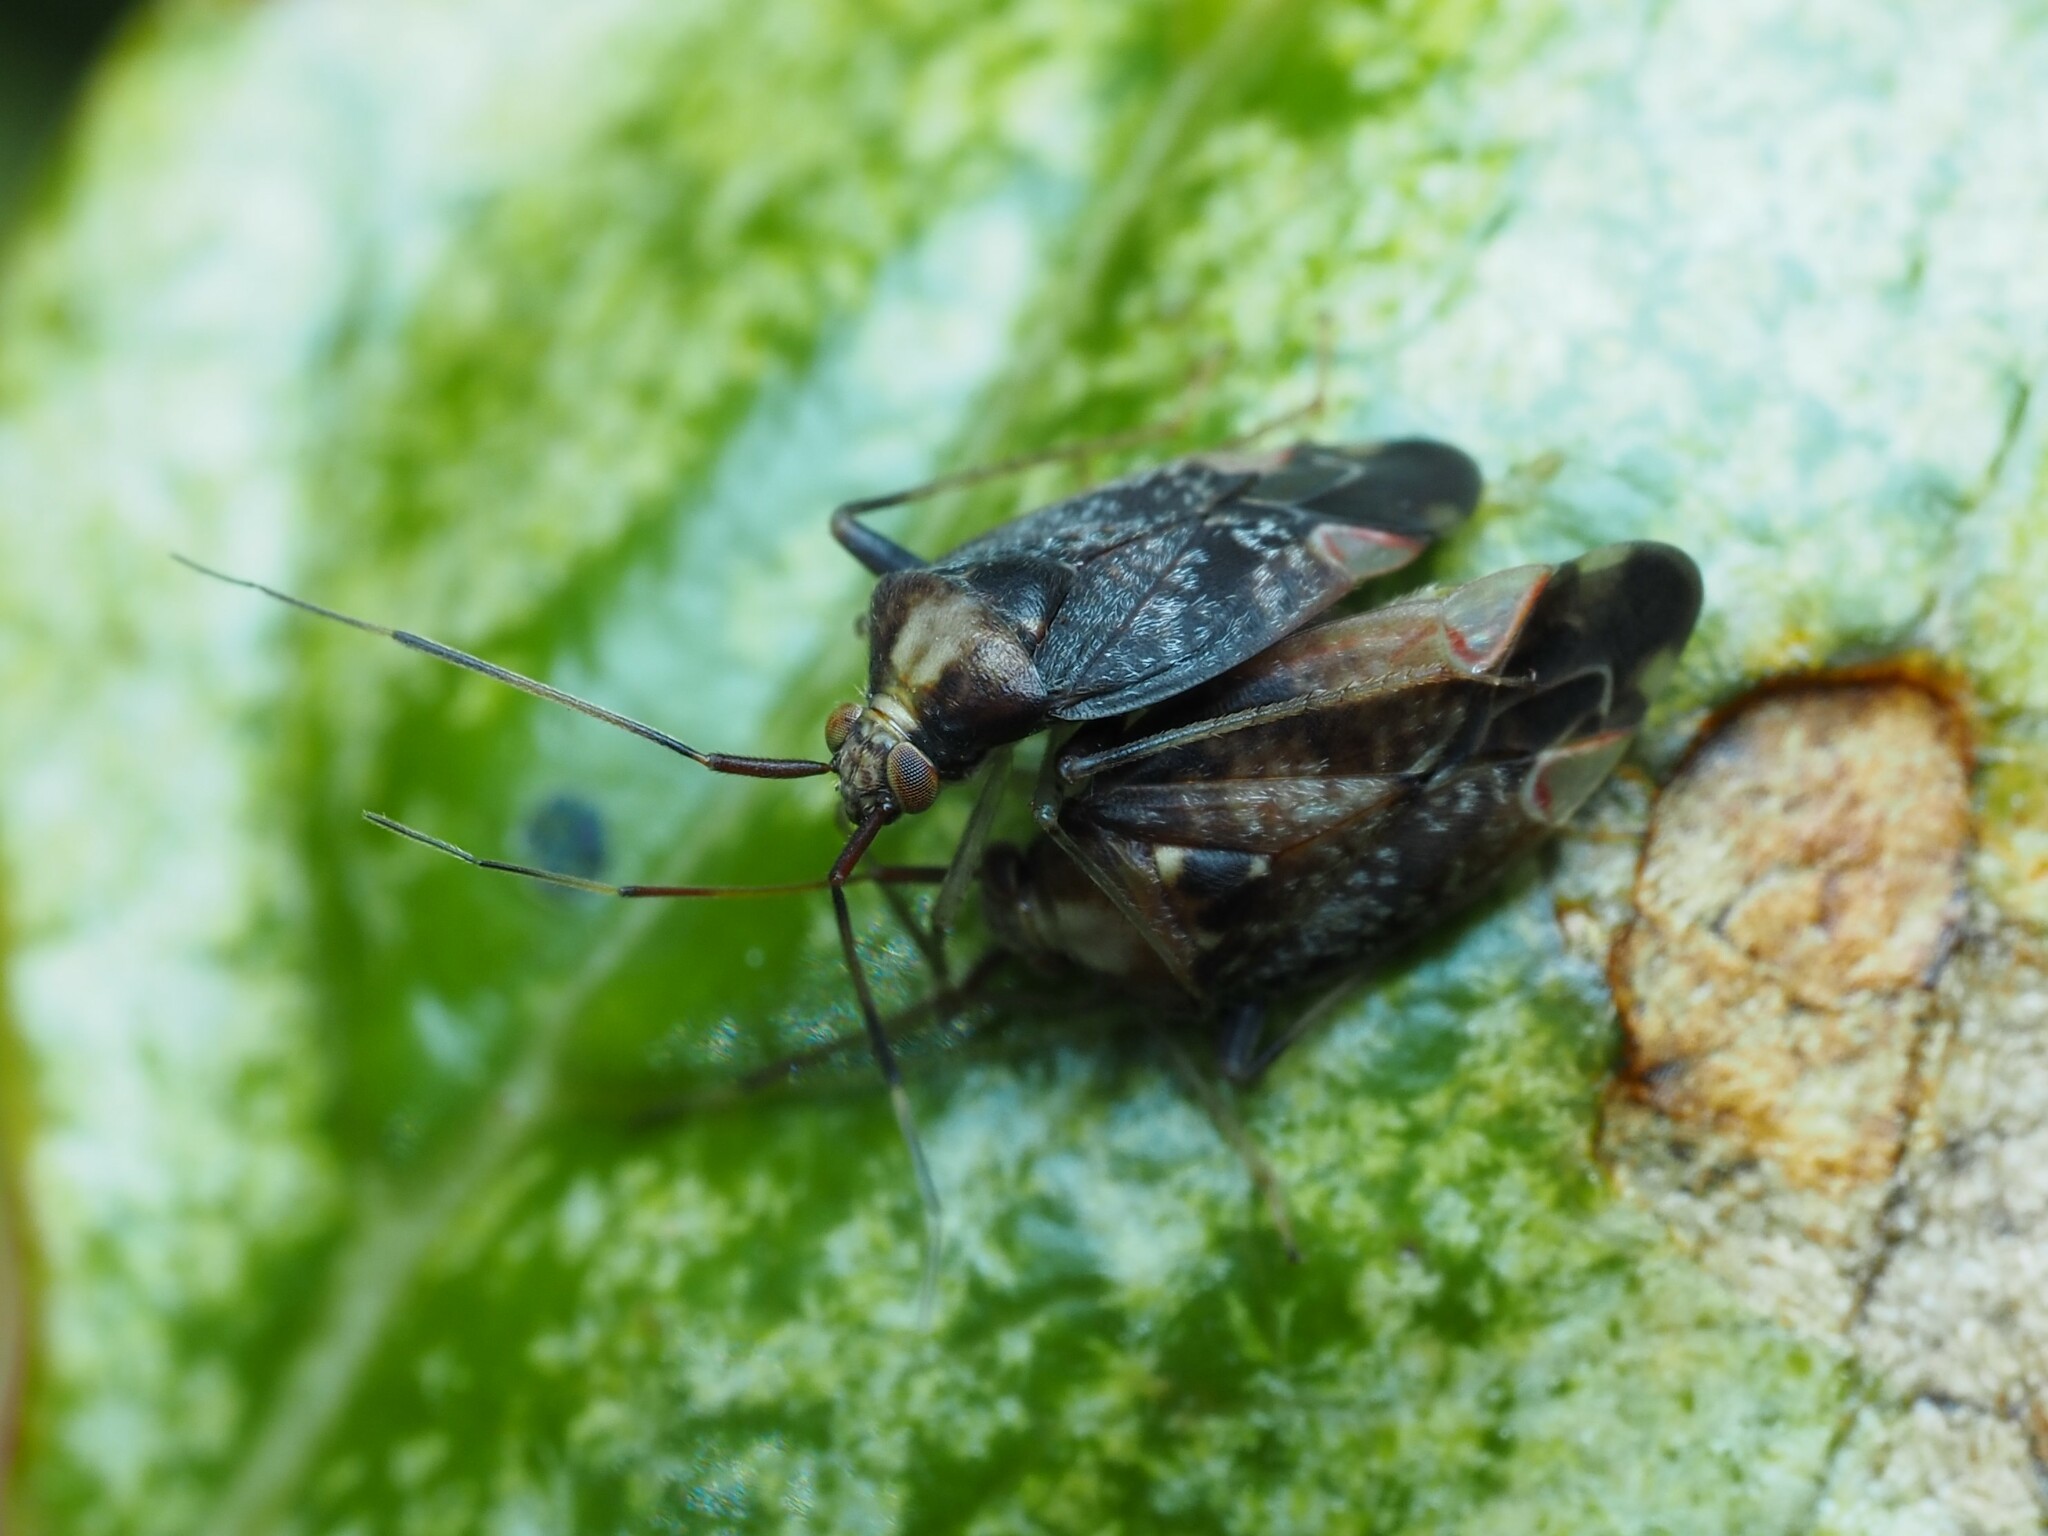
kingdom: Animalia
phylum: Arthropoda
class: Insecta
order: Hemiptera
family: Miridae
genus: Chinamiris
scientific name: Chinamiris indeclivis
